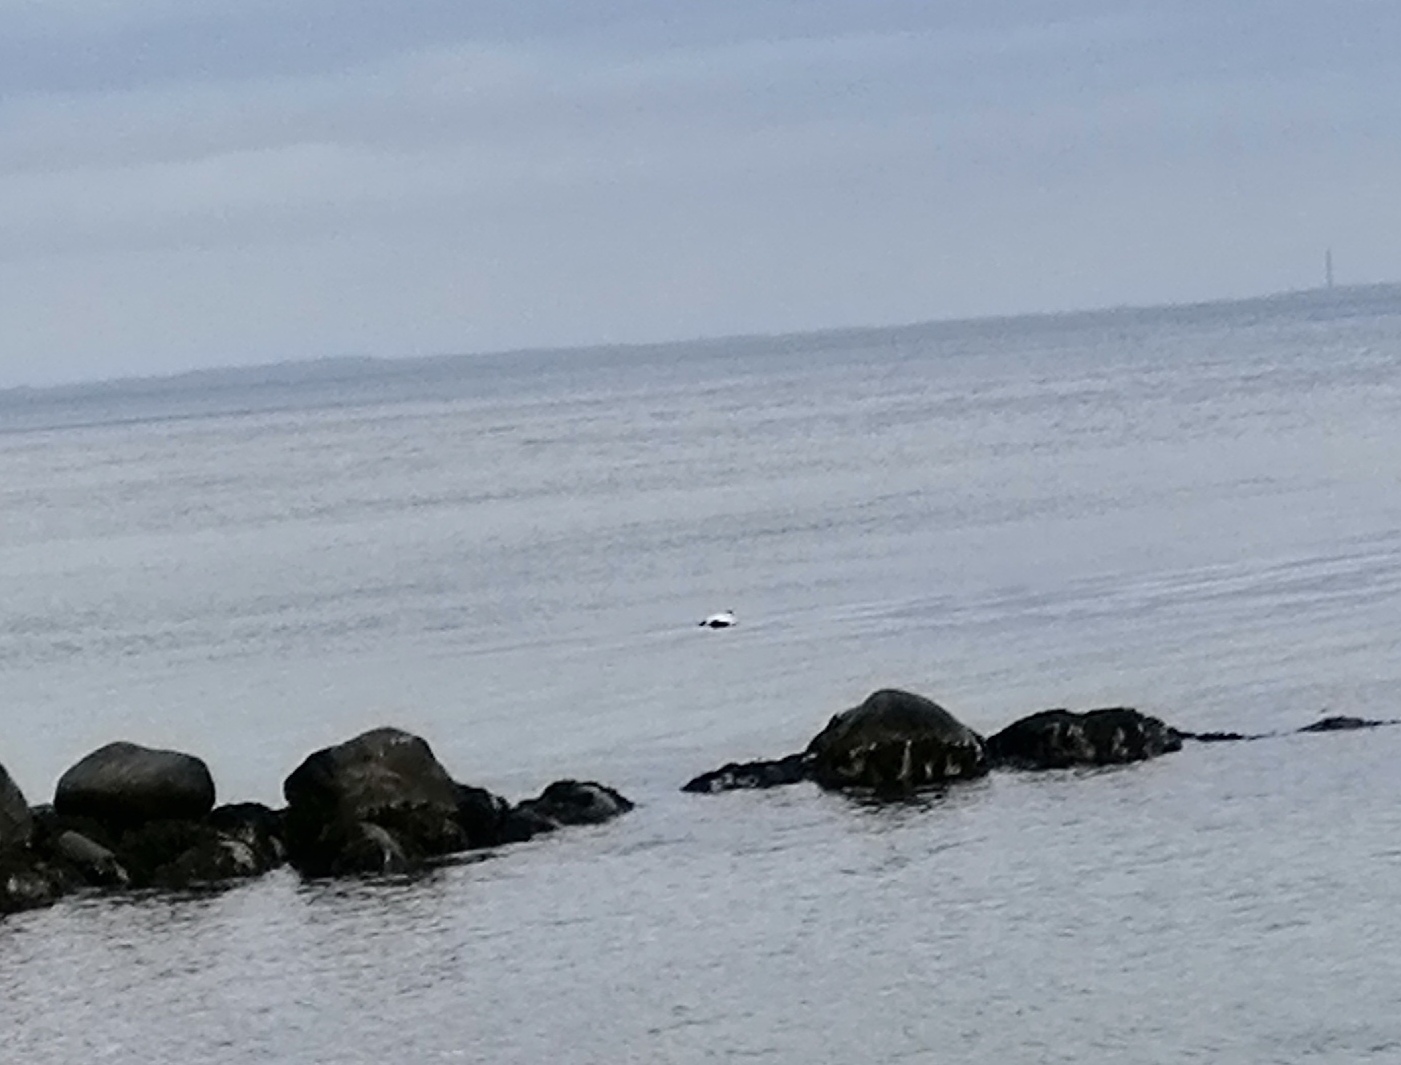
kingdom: Animalia
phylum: Chordata
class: Aves
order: Anseriformes
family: Anatidae
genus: Somateria
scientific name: Somateria mollissima
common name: Common eider
